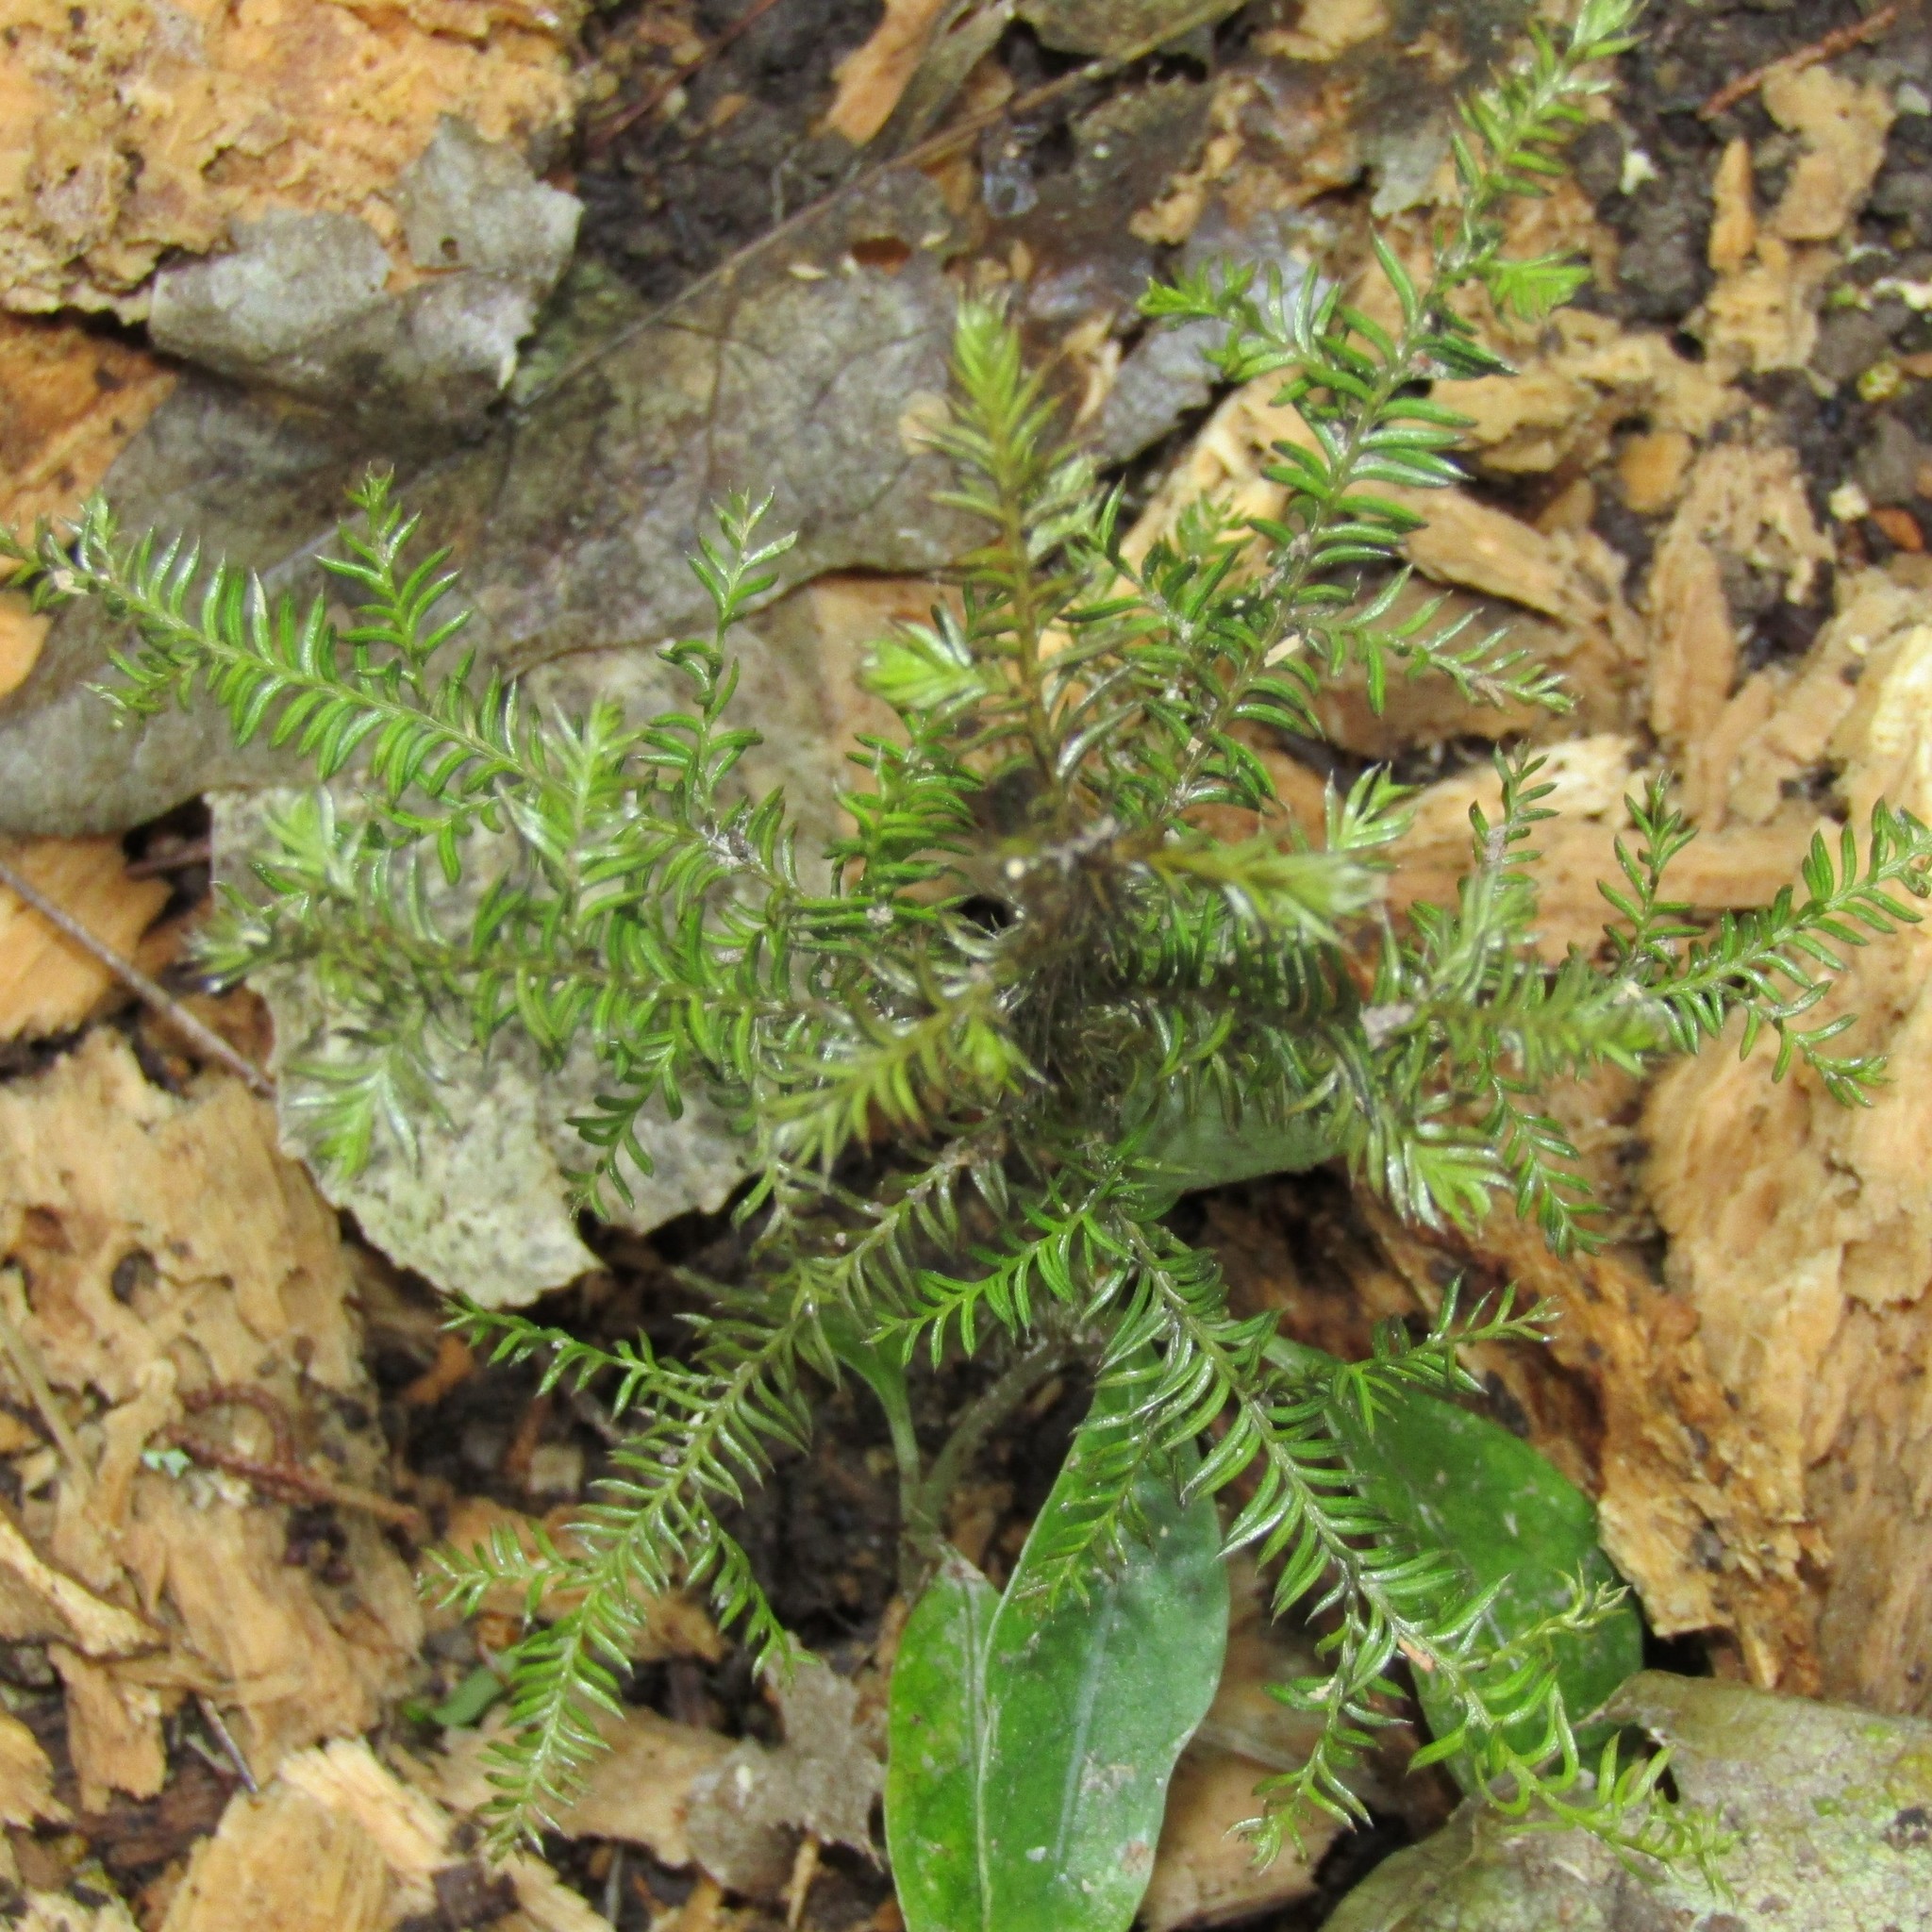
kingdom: Plantae
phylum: Tracheophyta
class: Pinopsida
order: Pinales
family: Podocarpaceae
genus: Dacrycarpus
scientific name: Dacrycarpus dacrydioides
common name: White pine
